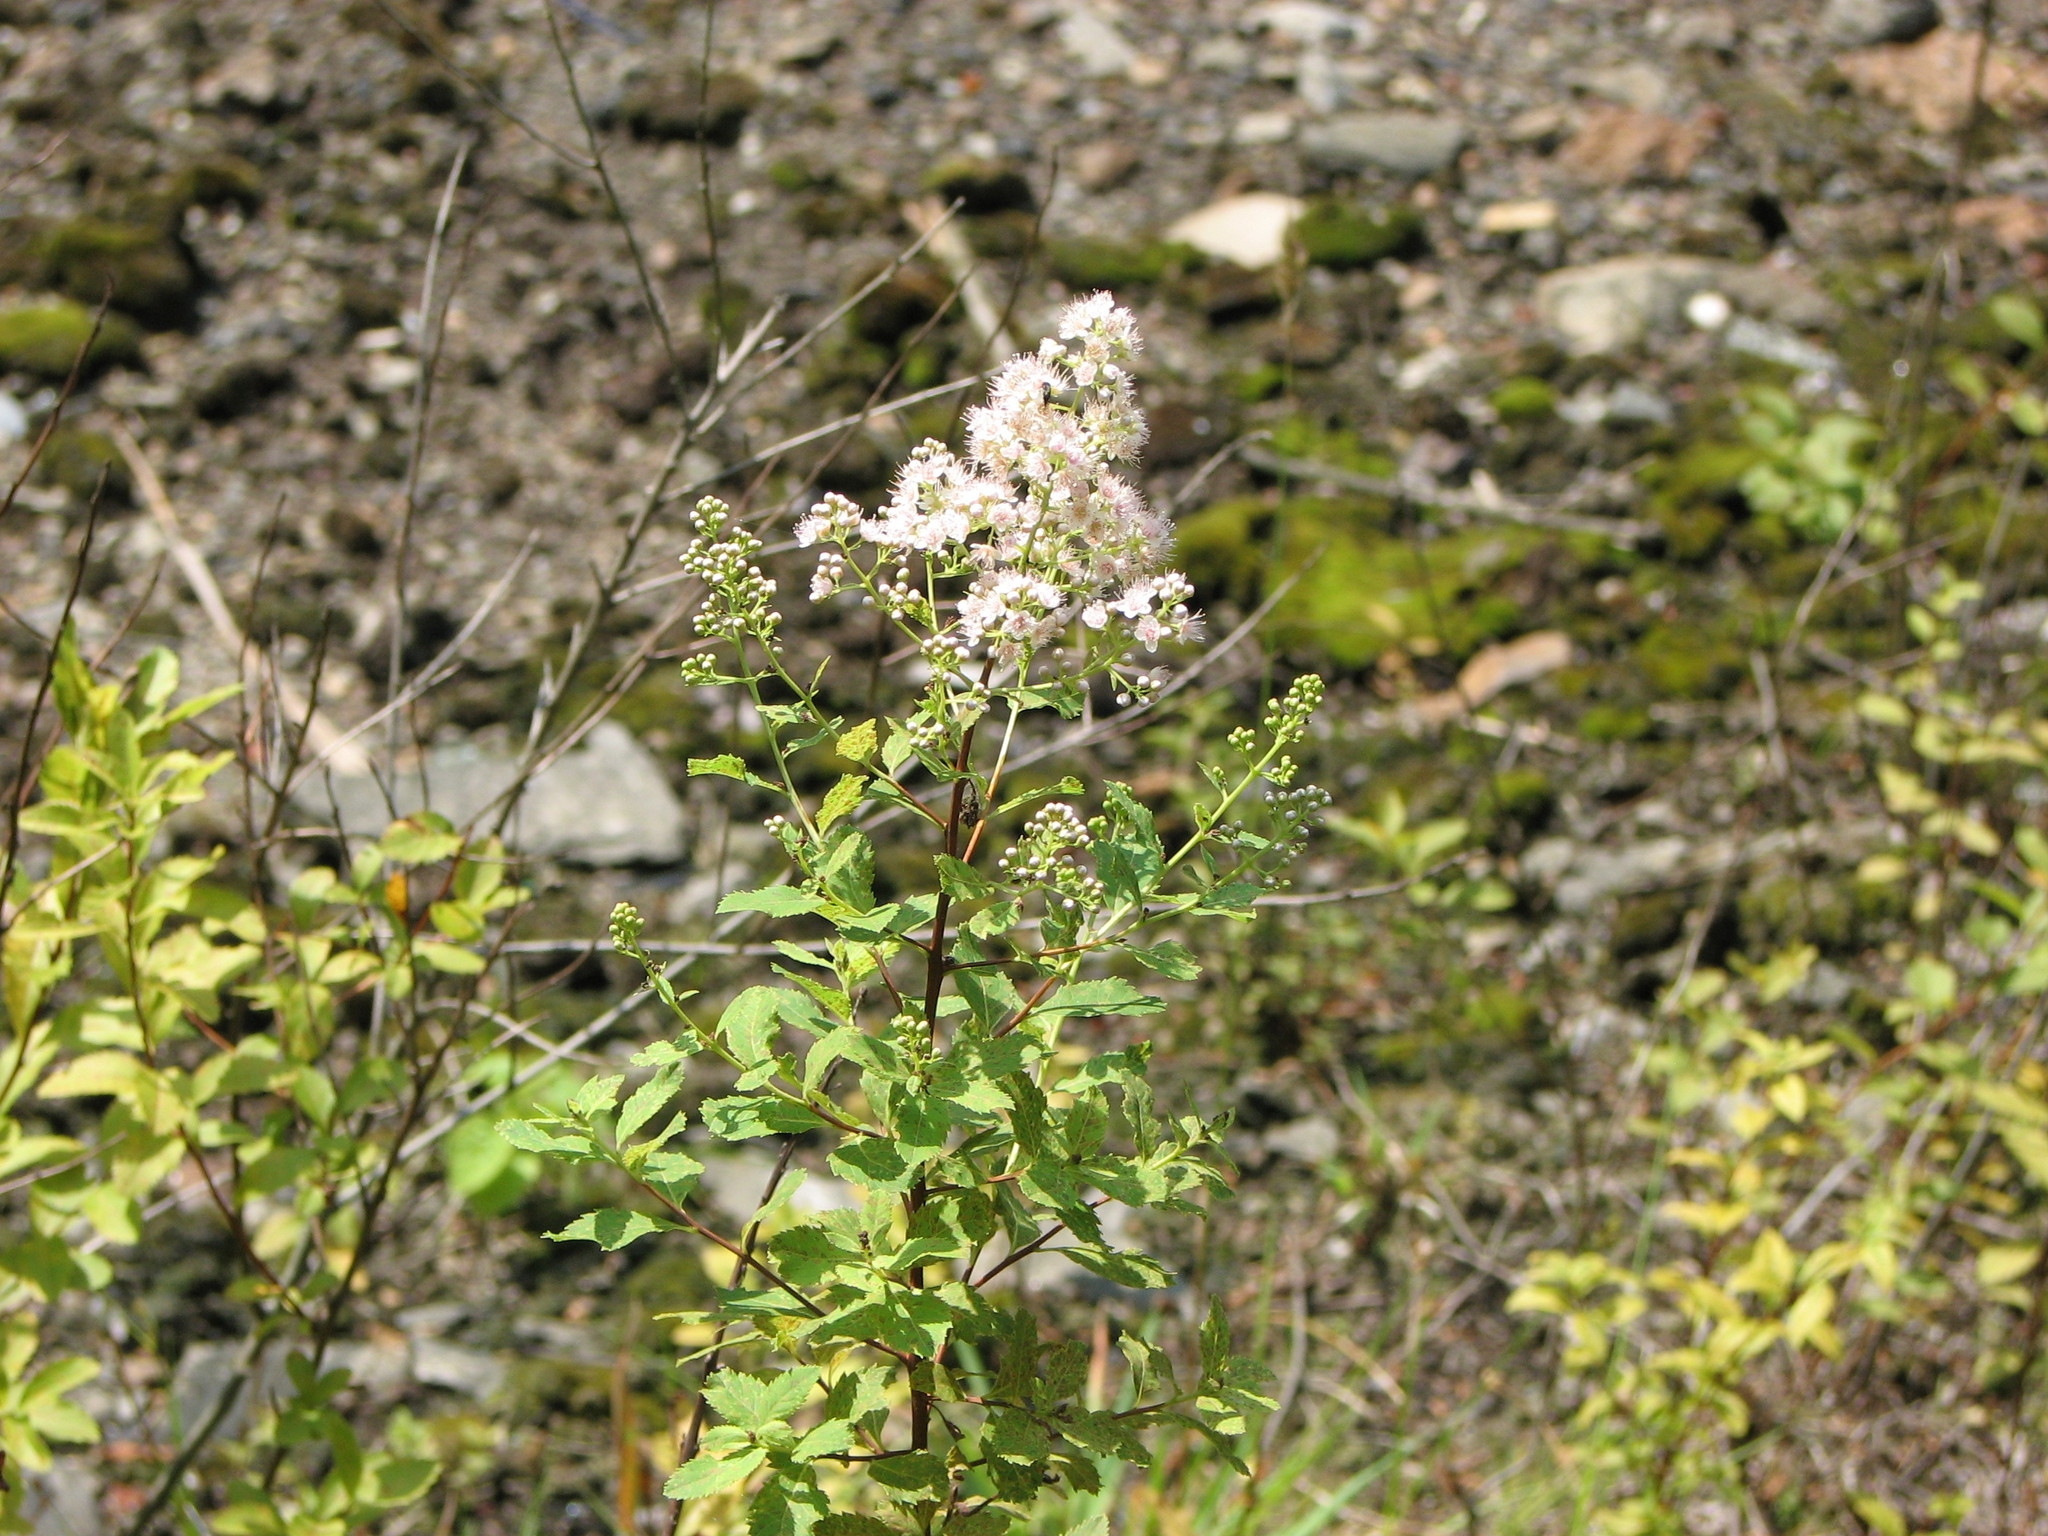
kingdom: Plantae
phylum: Tracheophyta
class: Magnoliopsida
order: Rosales
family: Rosaceae
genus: Spiraea
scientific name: Spiraea alba
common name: Pale bridewort
